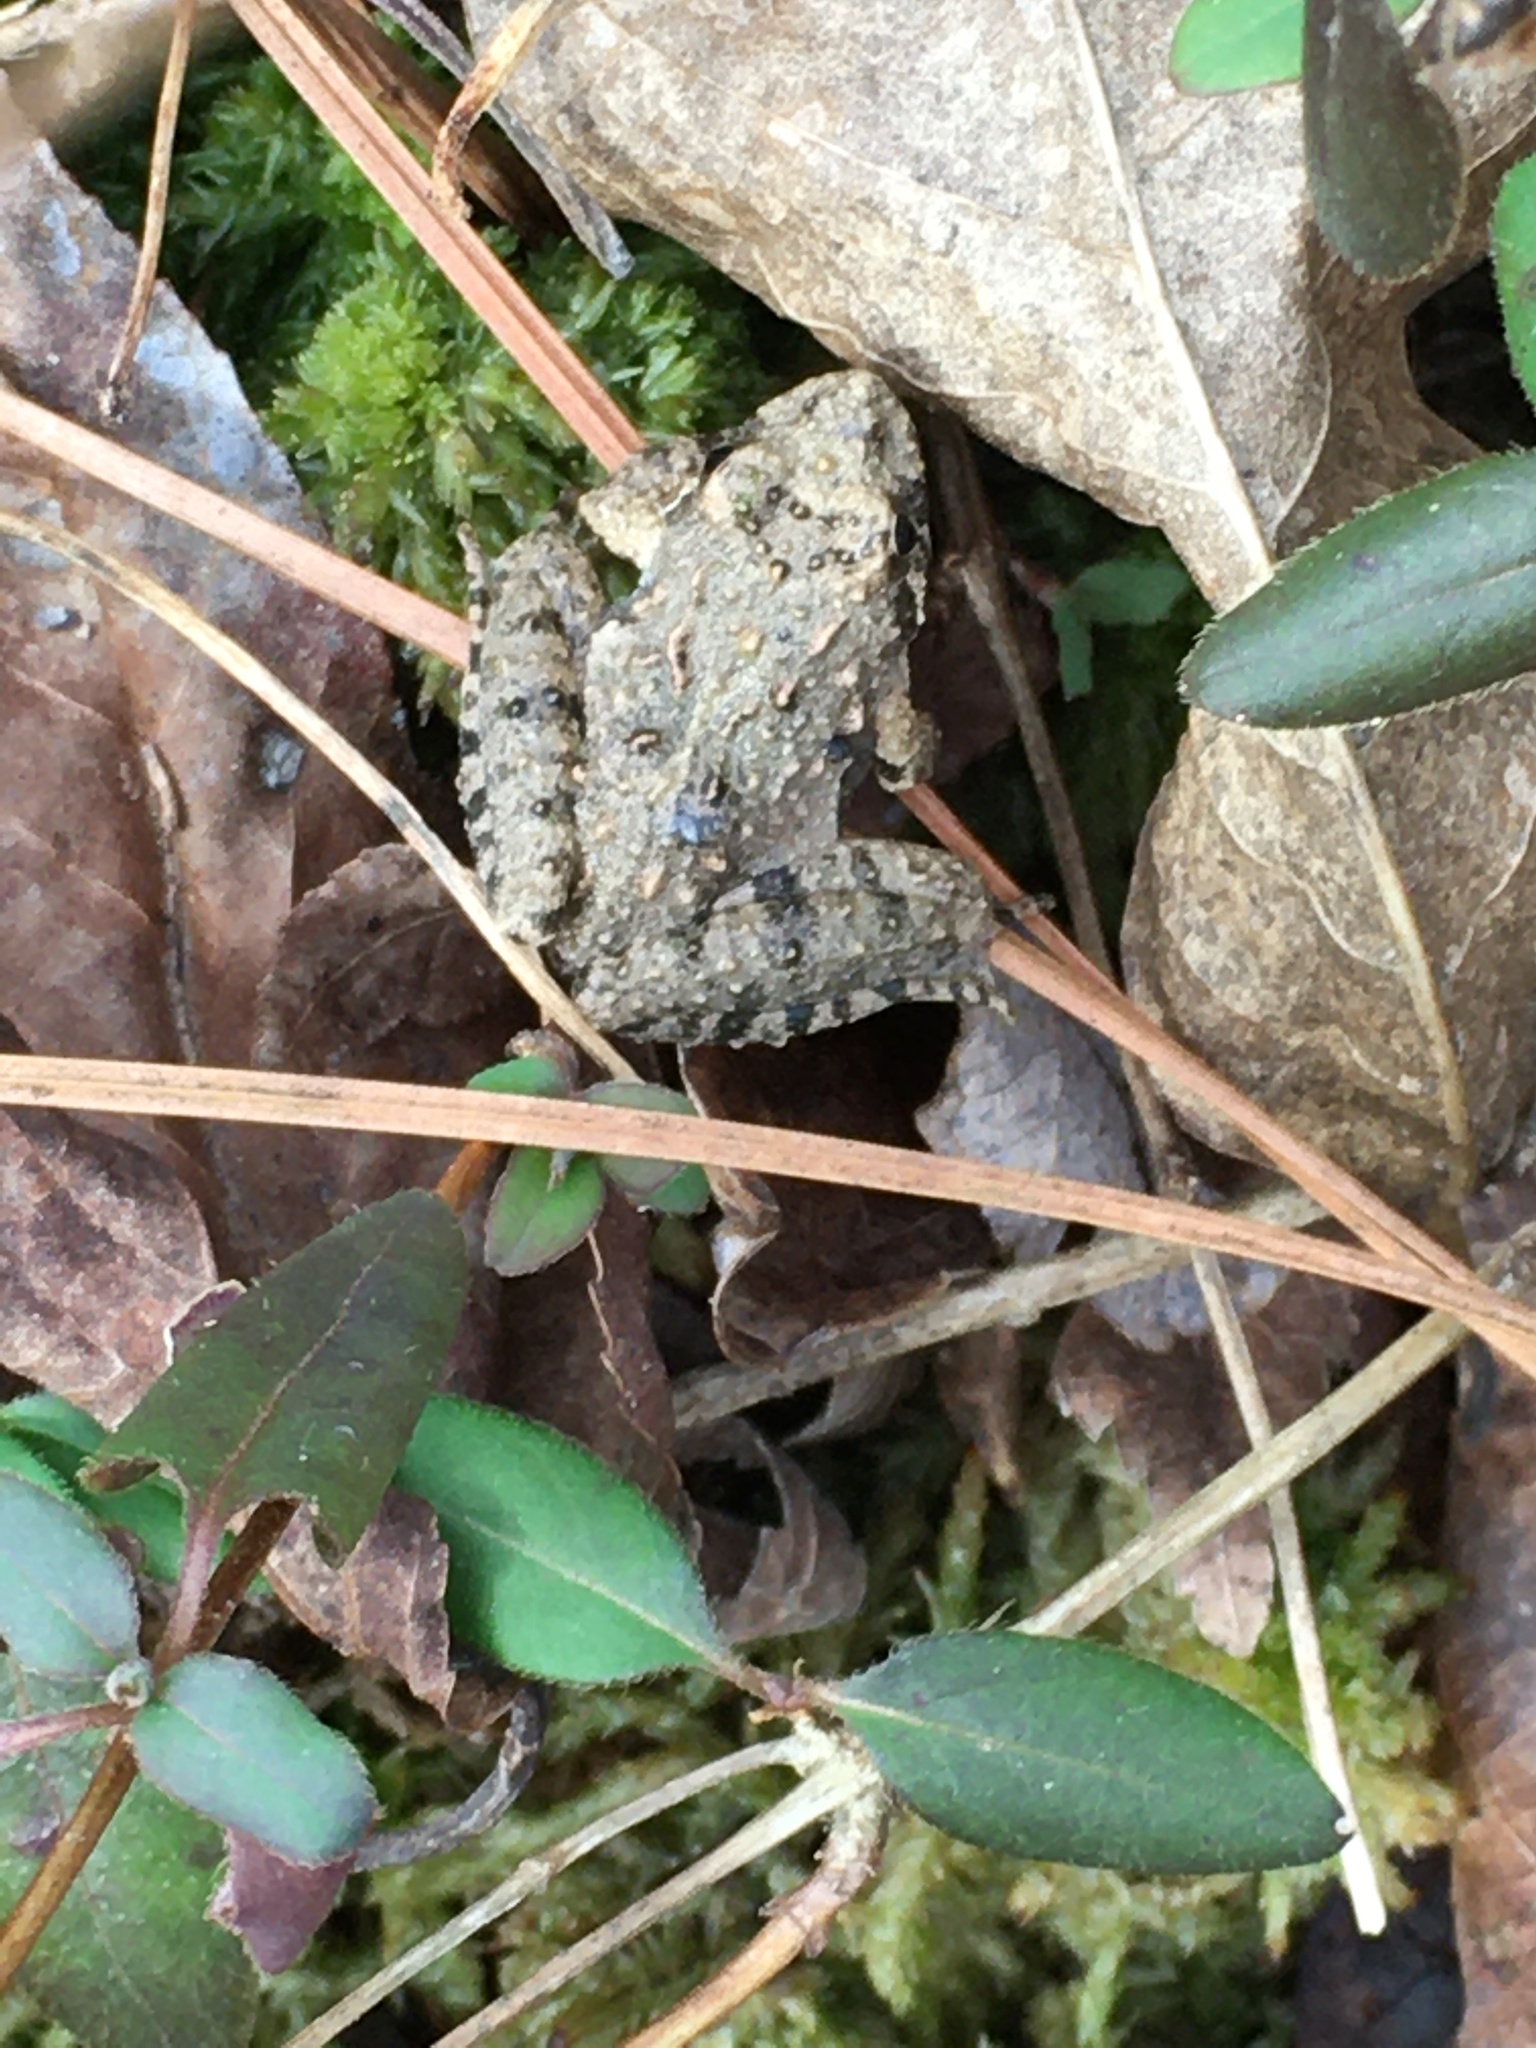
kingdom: Animalia
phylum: Chordata
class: Amphibia
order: Anura
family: Hylidae
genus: Acris
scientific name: Acris crepitans
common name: Northern cricket frog
